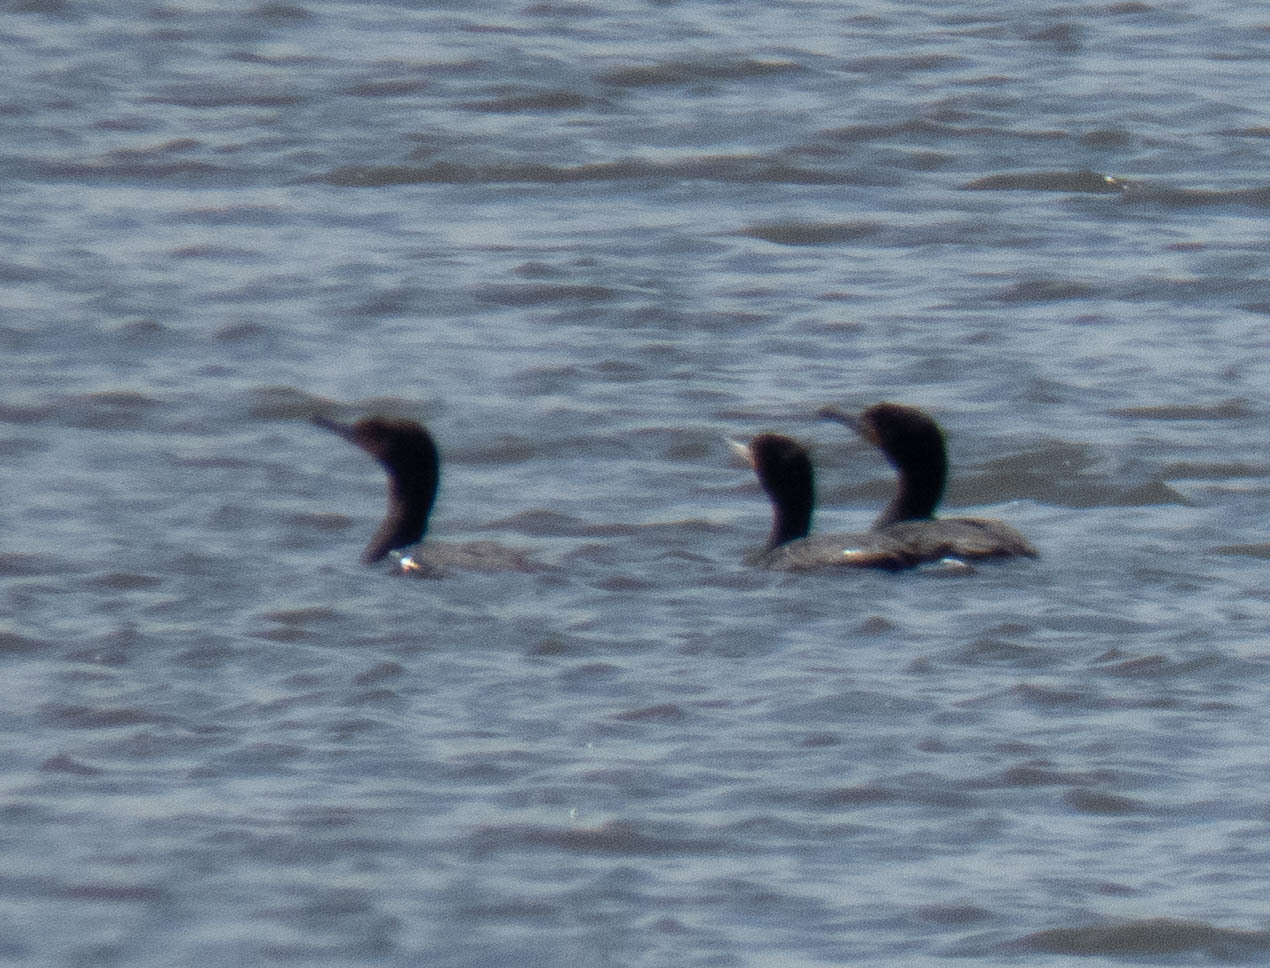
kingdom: Animalia
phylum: Chordata
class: Aves
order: Suliformes
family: Phalacrocoracidae
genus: Phalacrocorax
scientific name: Phalacrocorax auritus
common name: Double-crested cormorant
